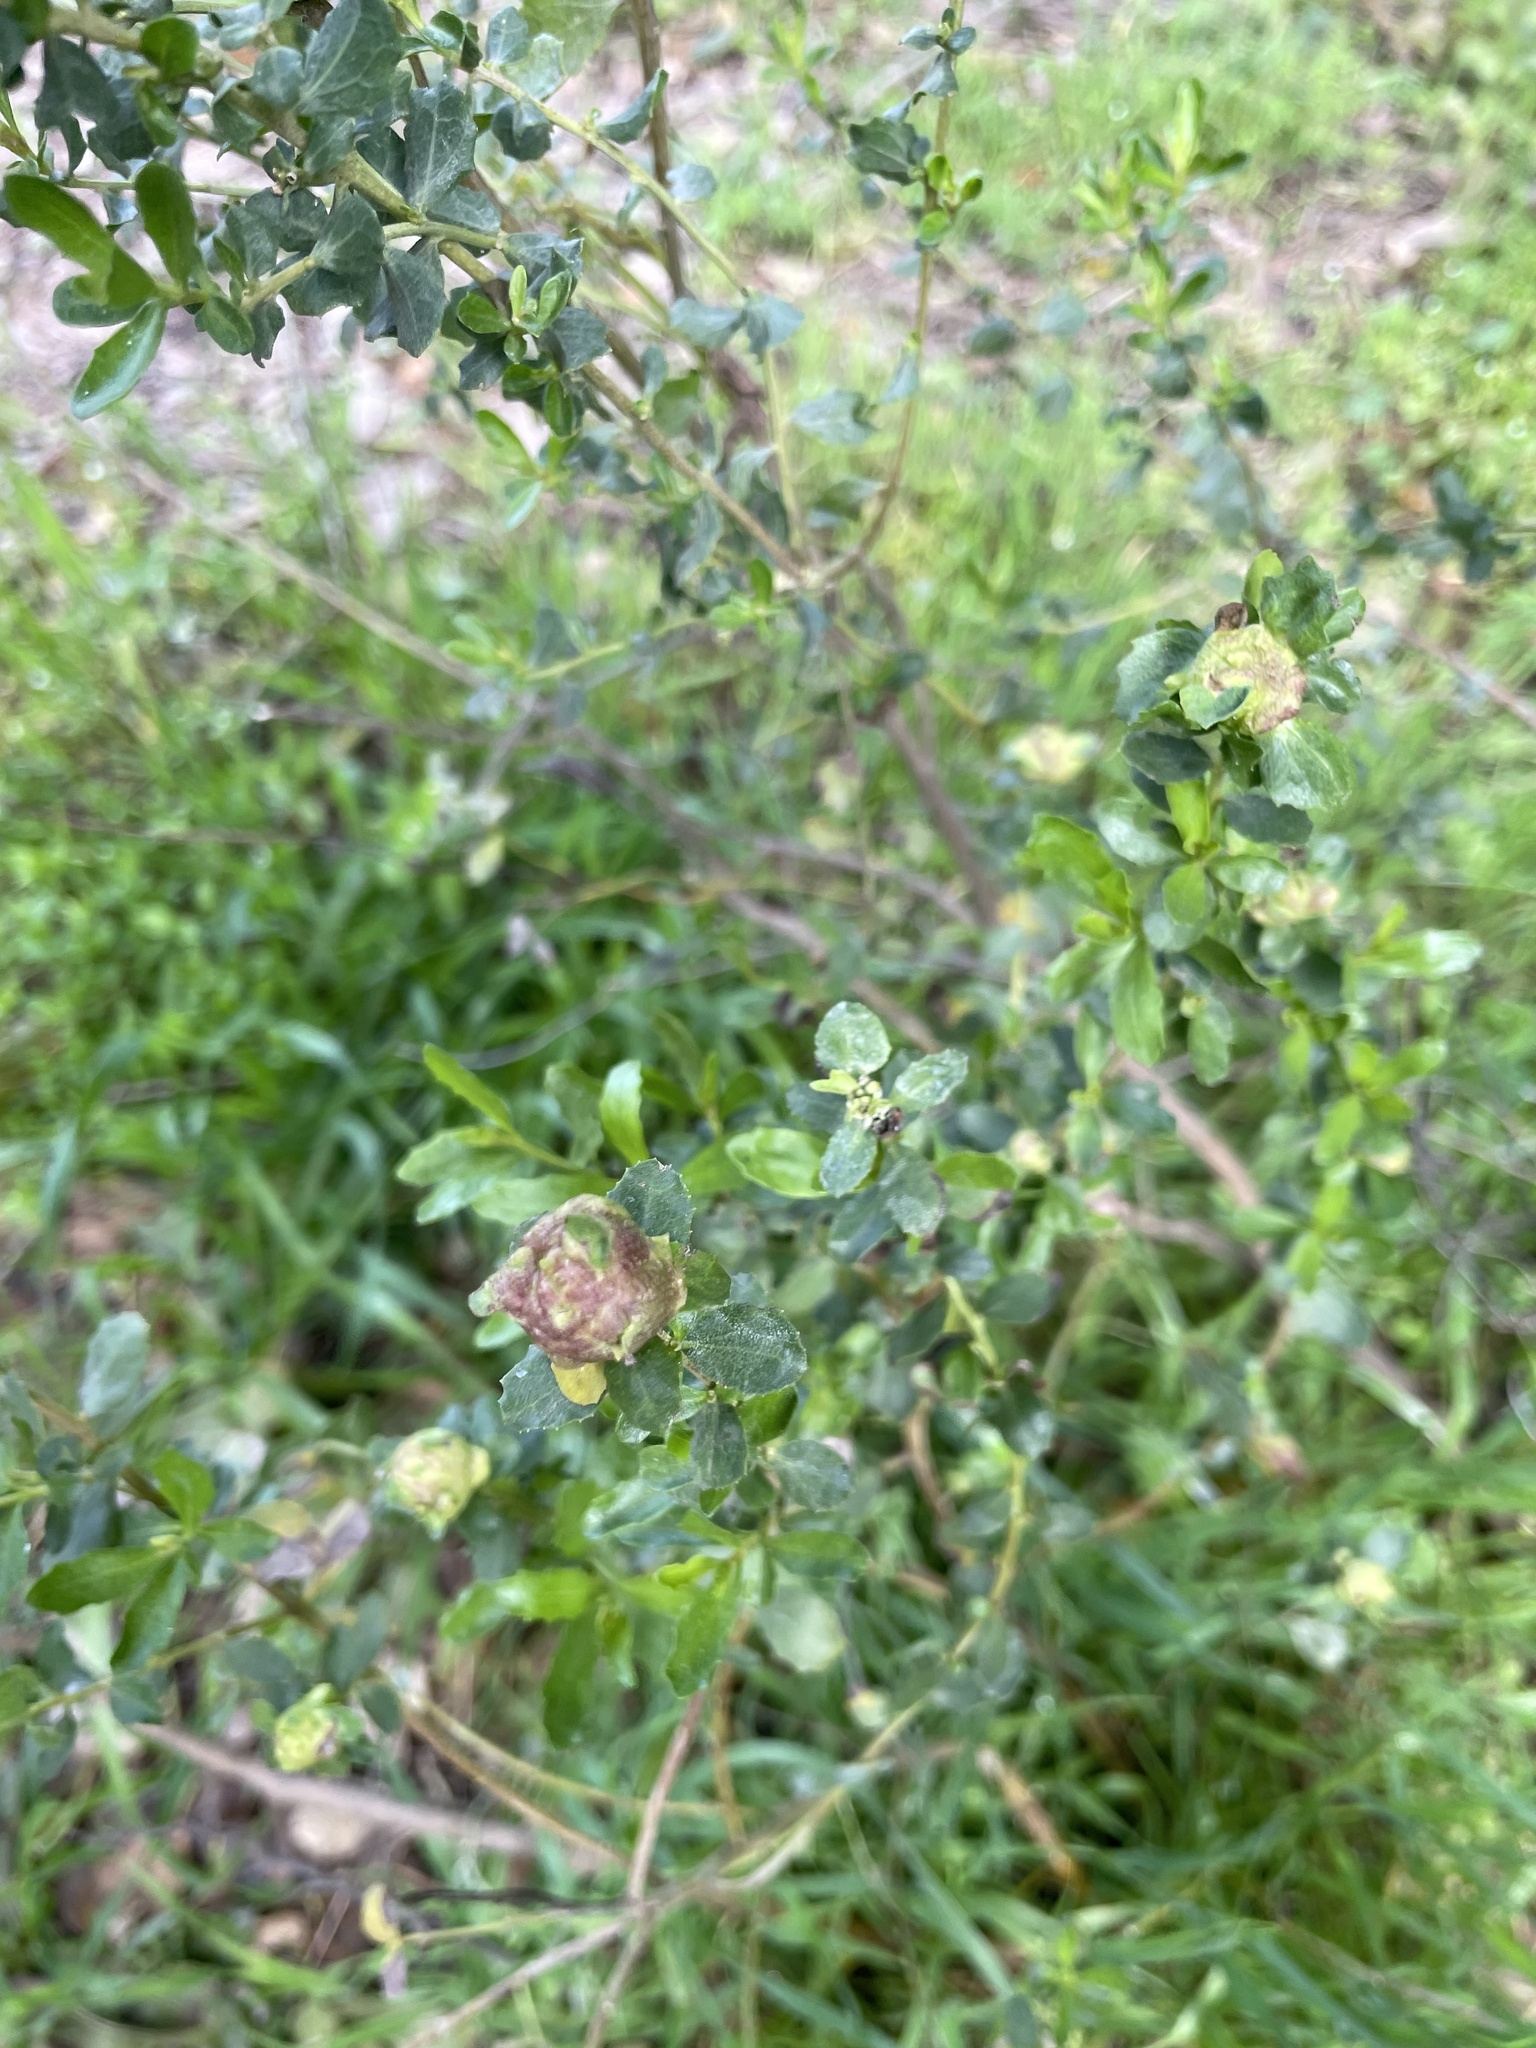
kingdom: Animalia
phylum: Arthropoda
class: Insecta
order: Diptera
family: Cecidomyiidae
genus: Rhopalomyia
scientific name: Rhopalomyia californica
